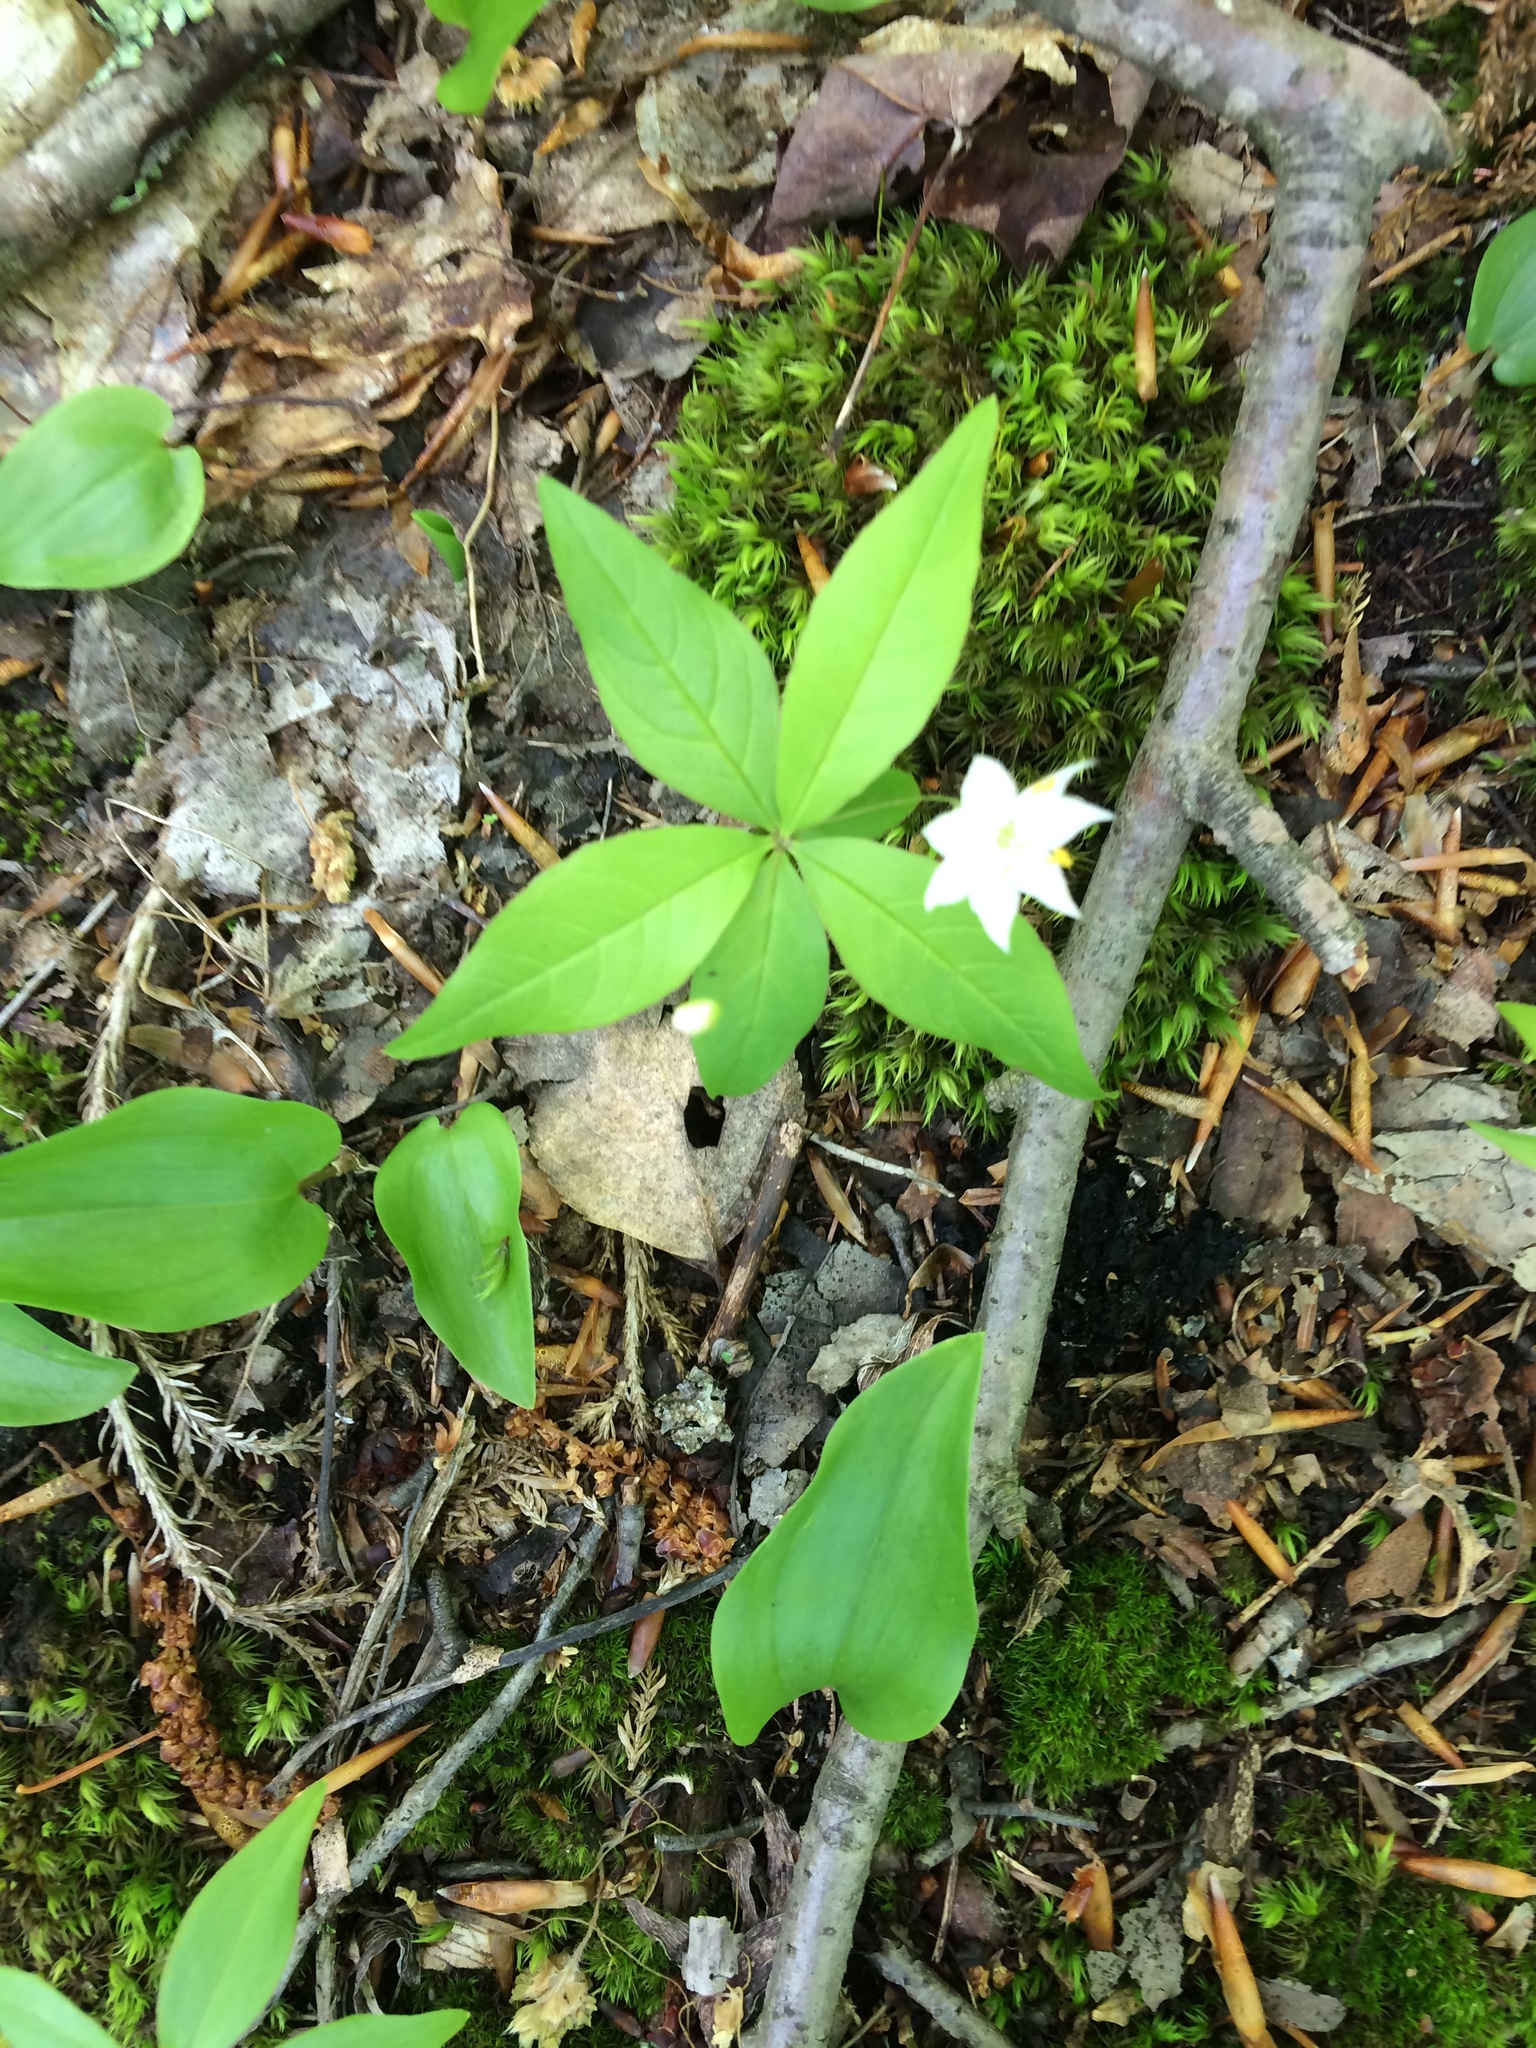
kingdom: Plantae
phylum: Tracheophyta
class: Magnoliopsida
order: Ericales
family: Primulaceae
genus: Lysimachia
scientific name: Lysimachia borealis
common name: American starflower
